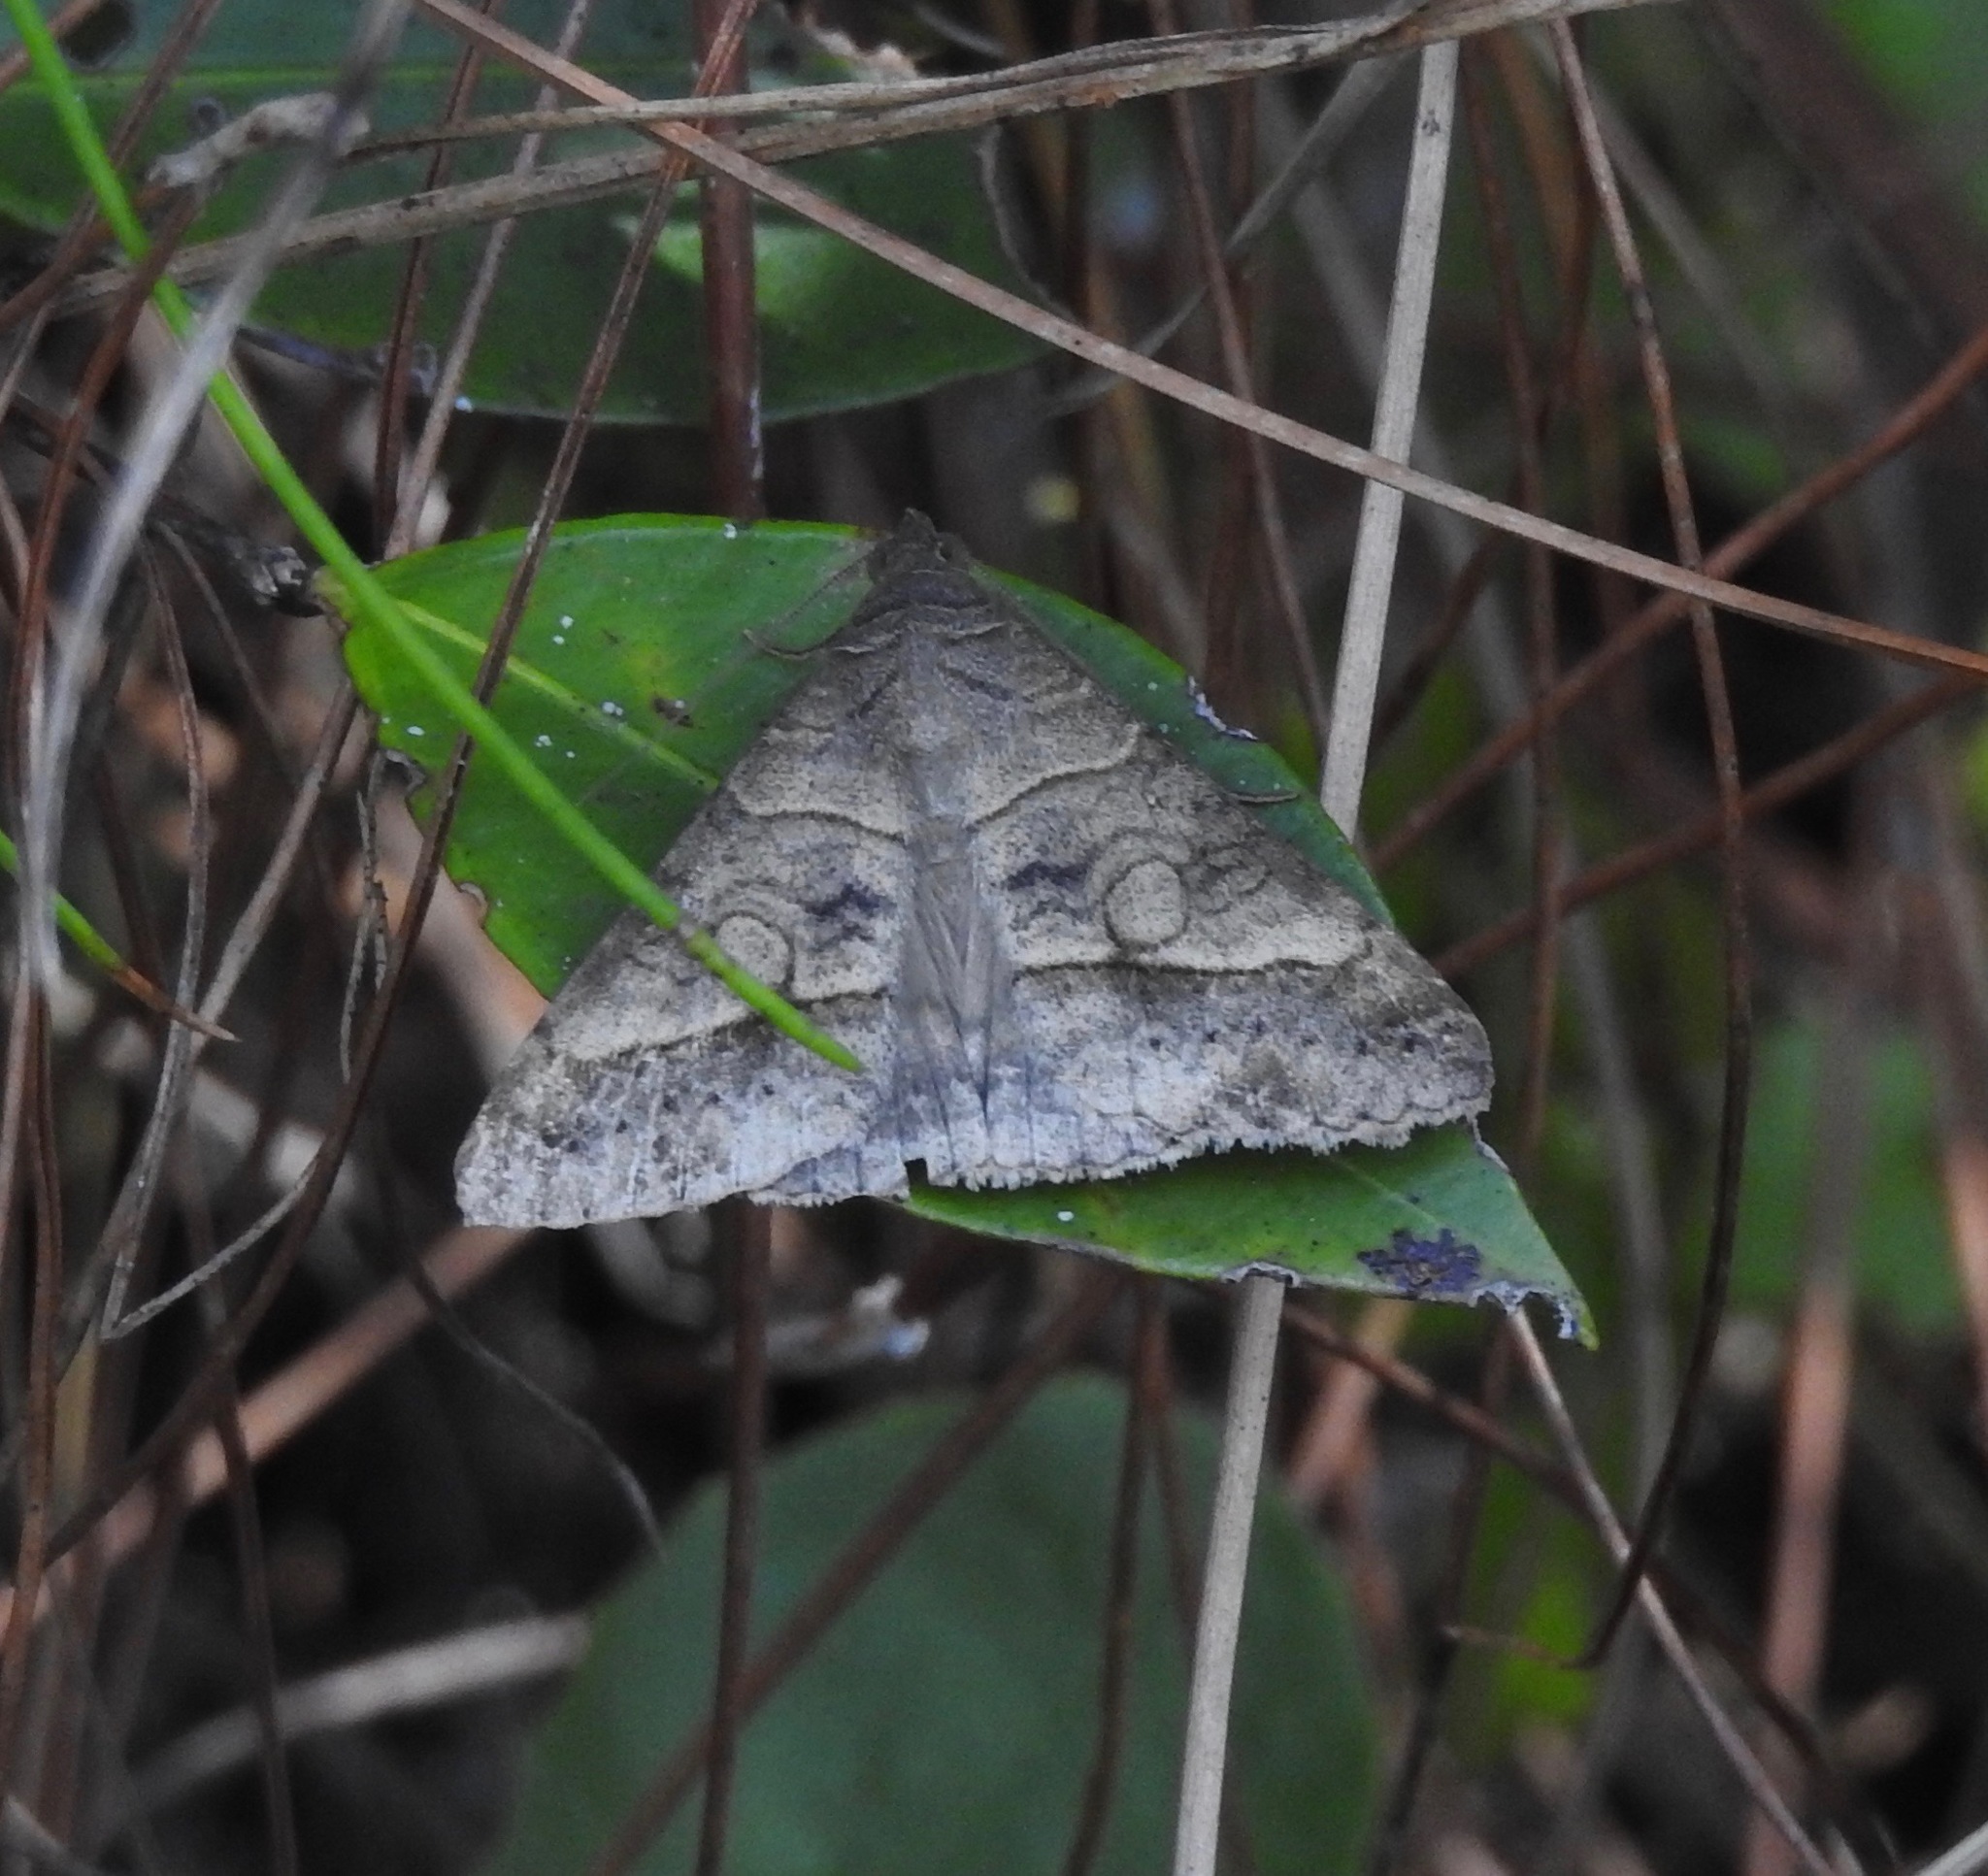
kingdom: Animalia
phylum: Arthropoda
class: Insecta
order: Lepidoptera
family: Erebidae
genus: Mocis
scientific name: Mocis latipes
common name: Striped grass looper
